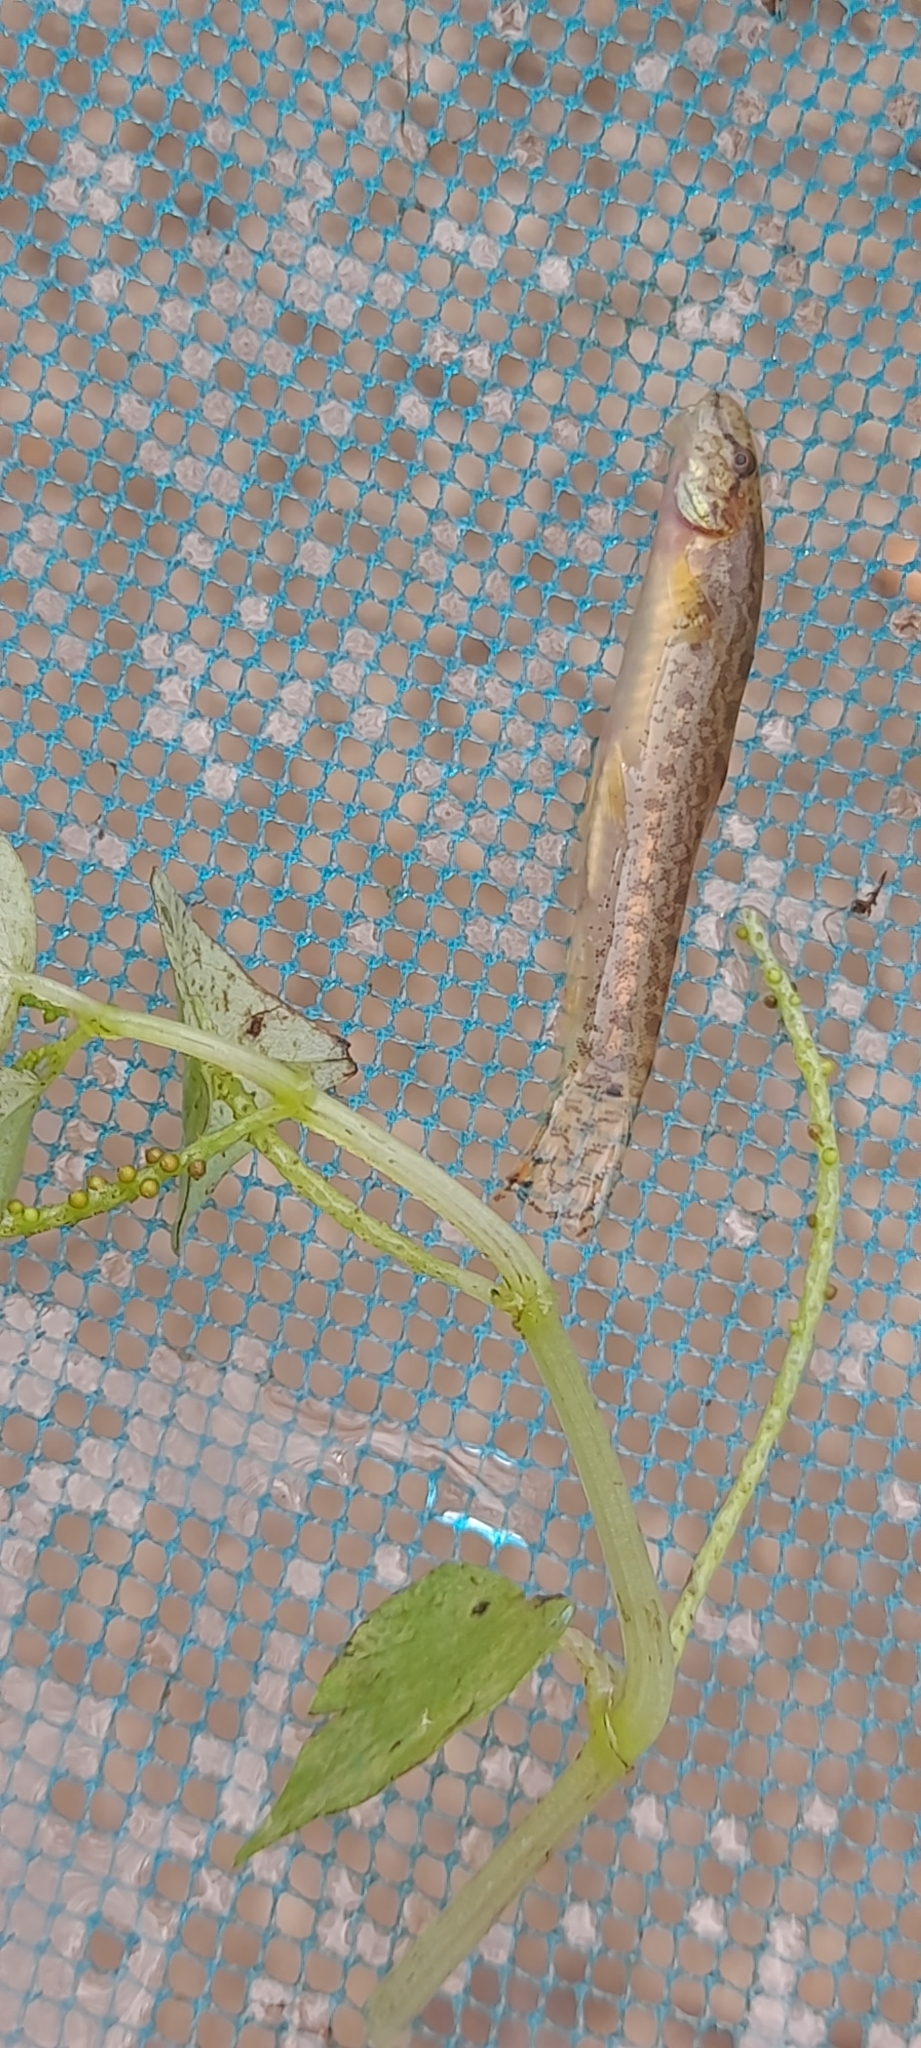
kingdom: Animalia
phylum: Chordata
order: Cypriniformes
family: Cobitidae
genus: Lepidocephalichthys
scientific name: Lepidocephalichthys thermalis
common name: Common spiny loach
